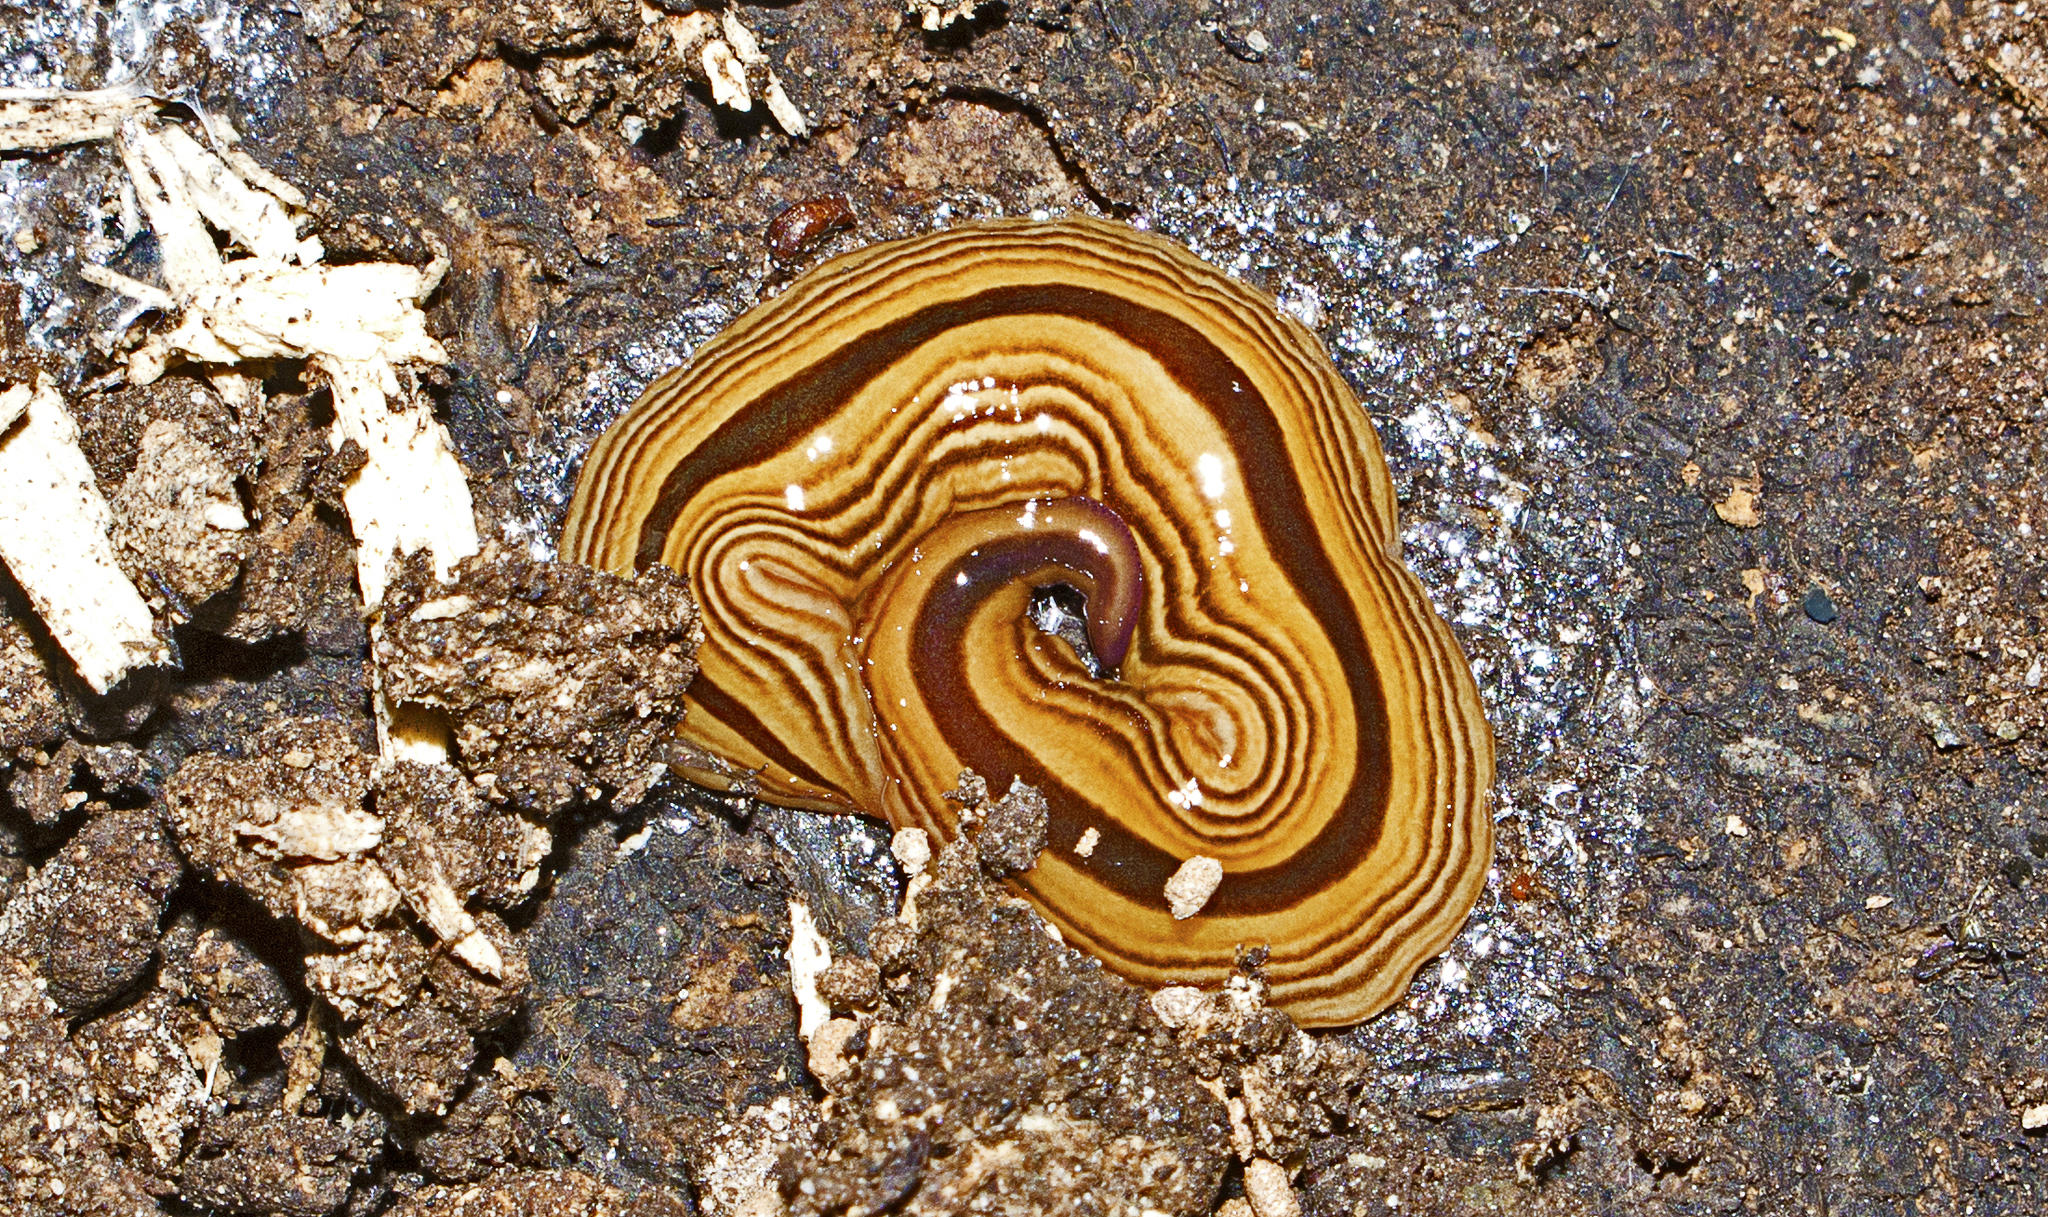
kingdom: Animalia
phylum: Platyhelminthes
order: Tricladida
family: Geoplanidae
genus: Australopacifica
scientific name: Australopacifica regina
